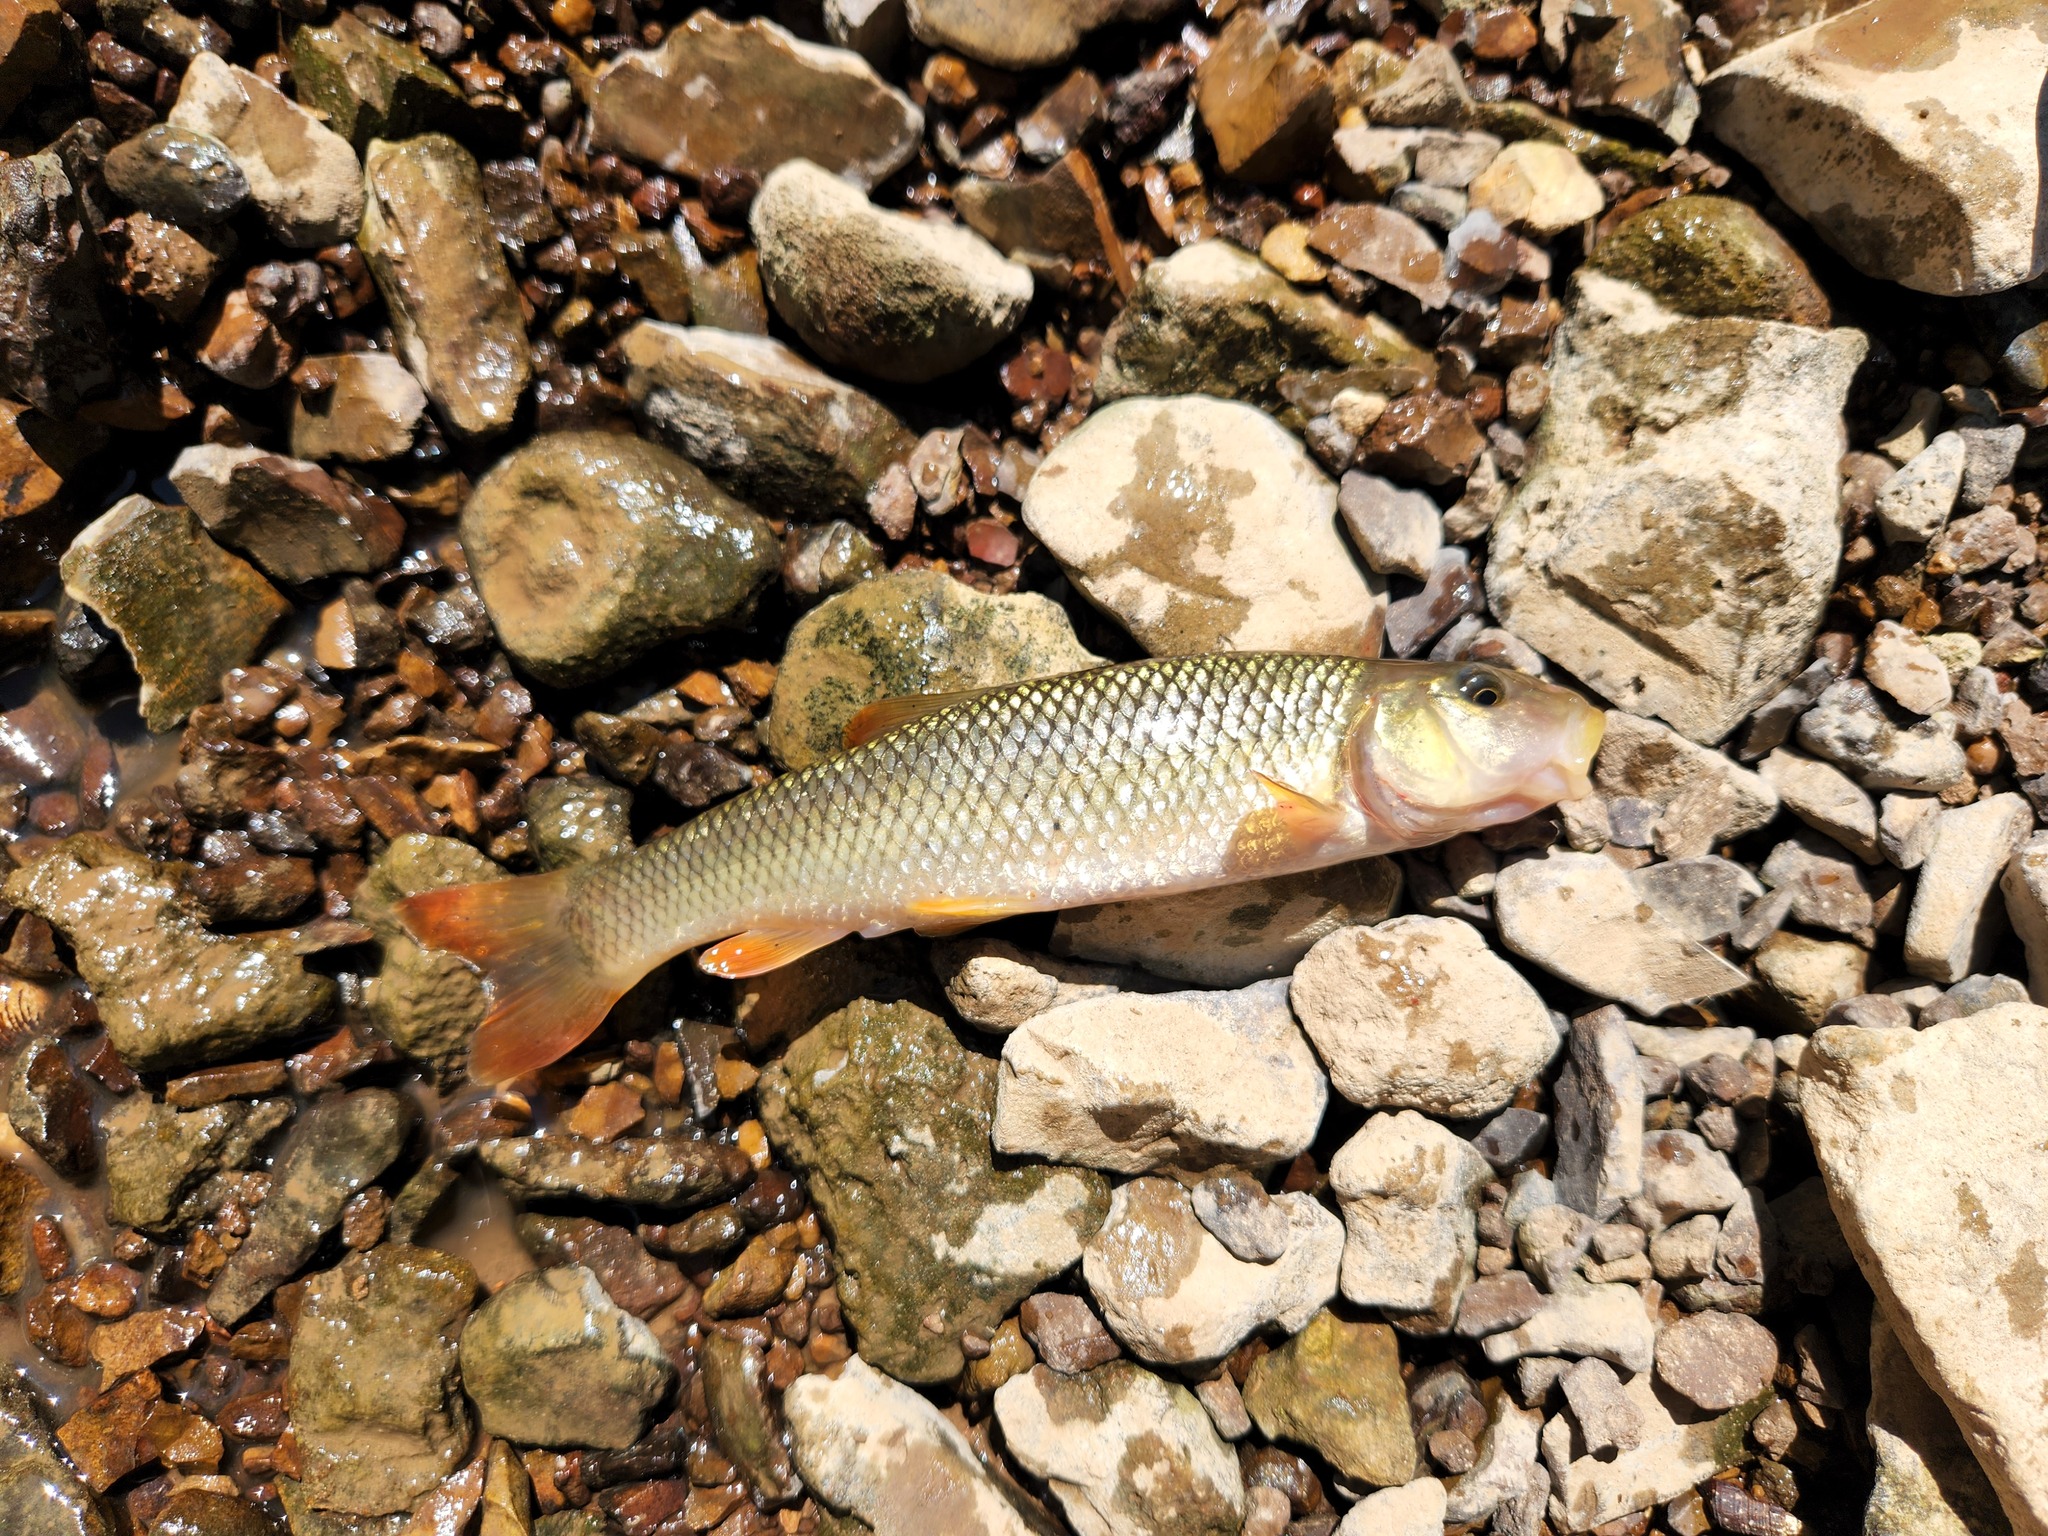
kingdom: Animalia
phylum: Chordata
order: Cypriniformes
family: Cyprinidae
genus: Nocomis
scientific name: Nocomis effusus
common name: Redtail chub
